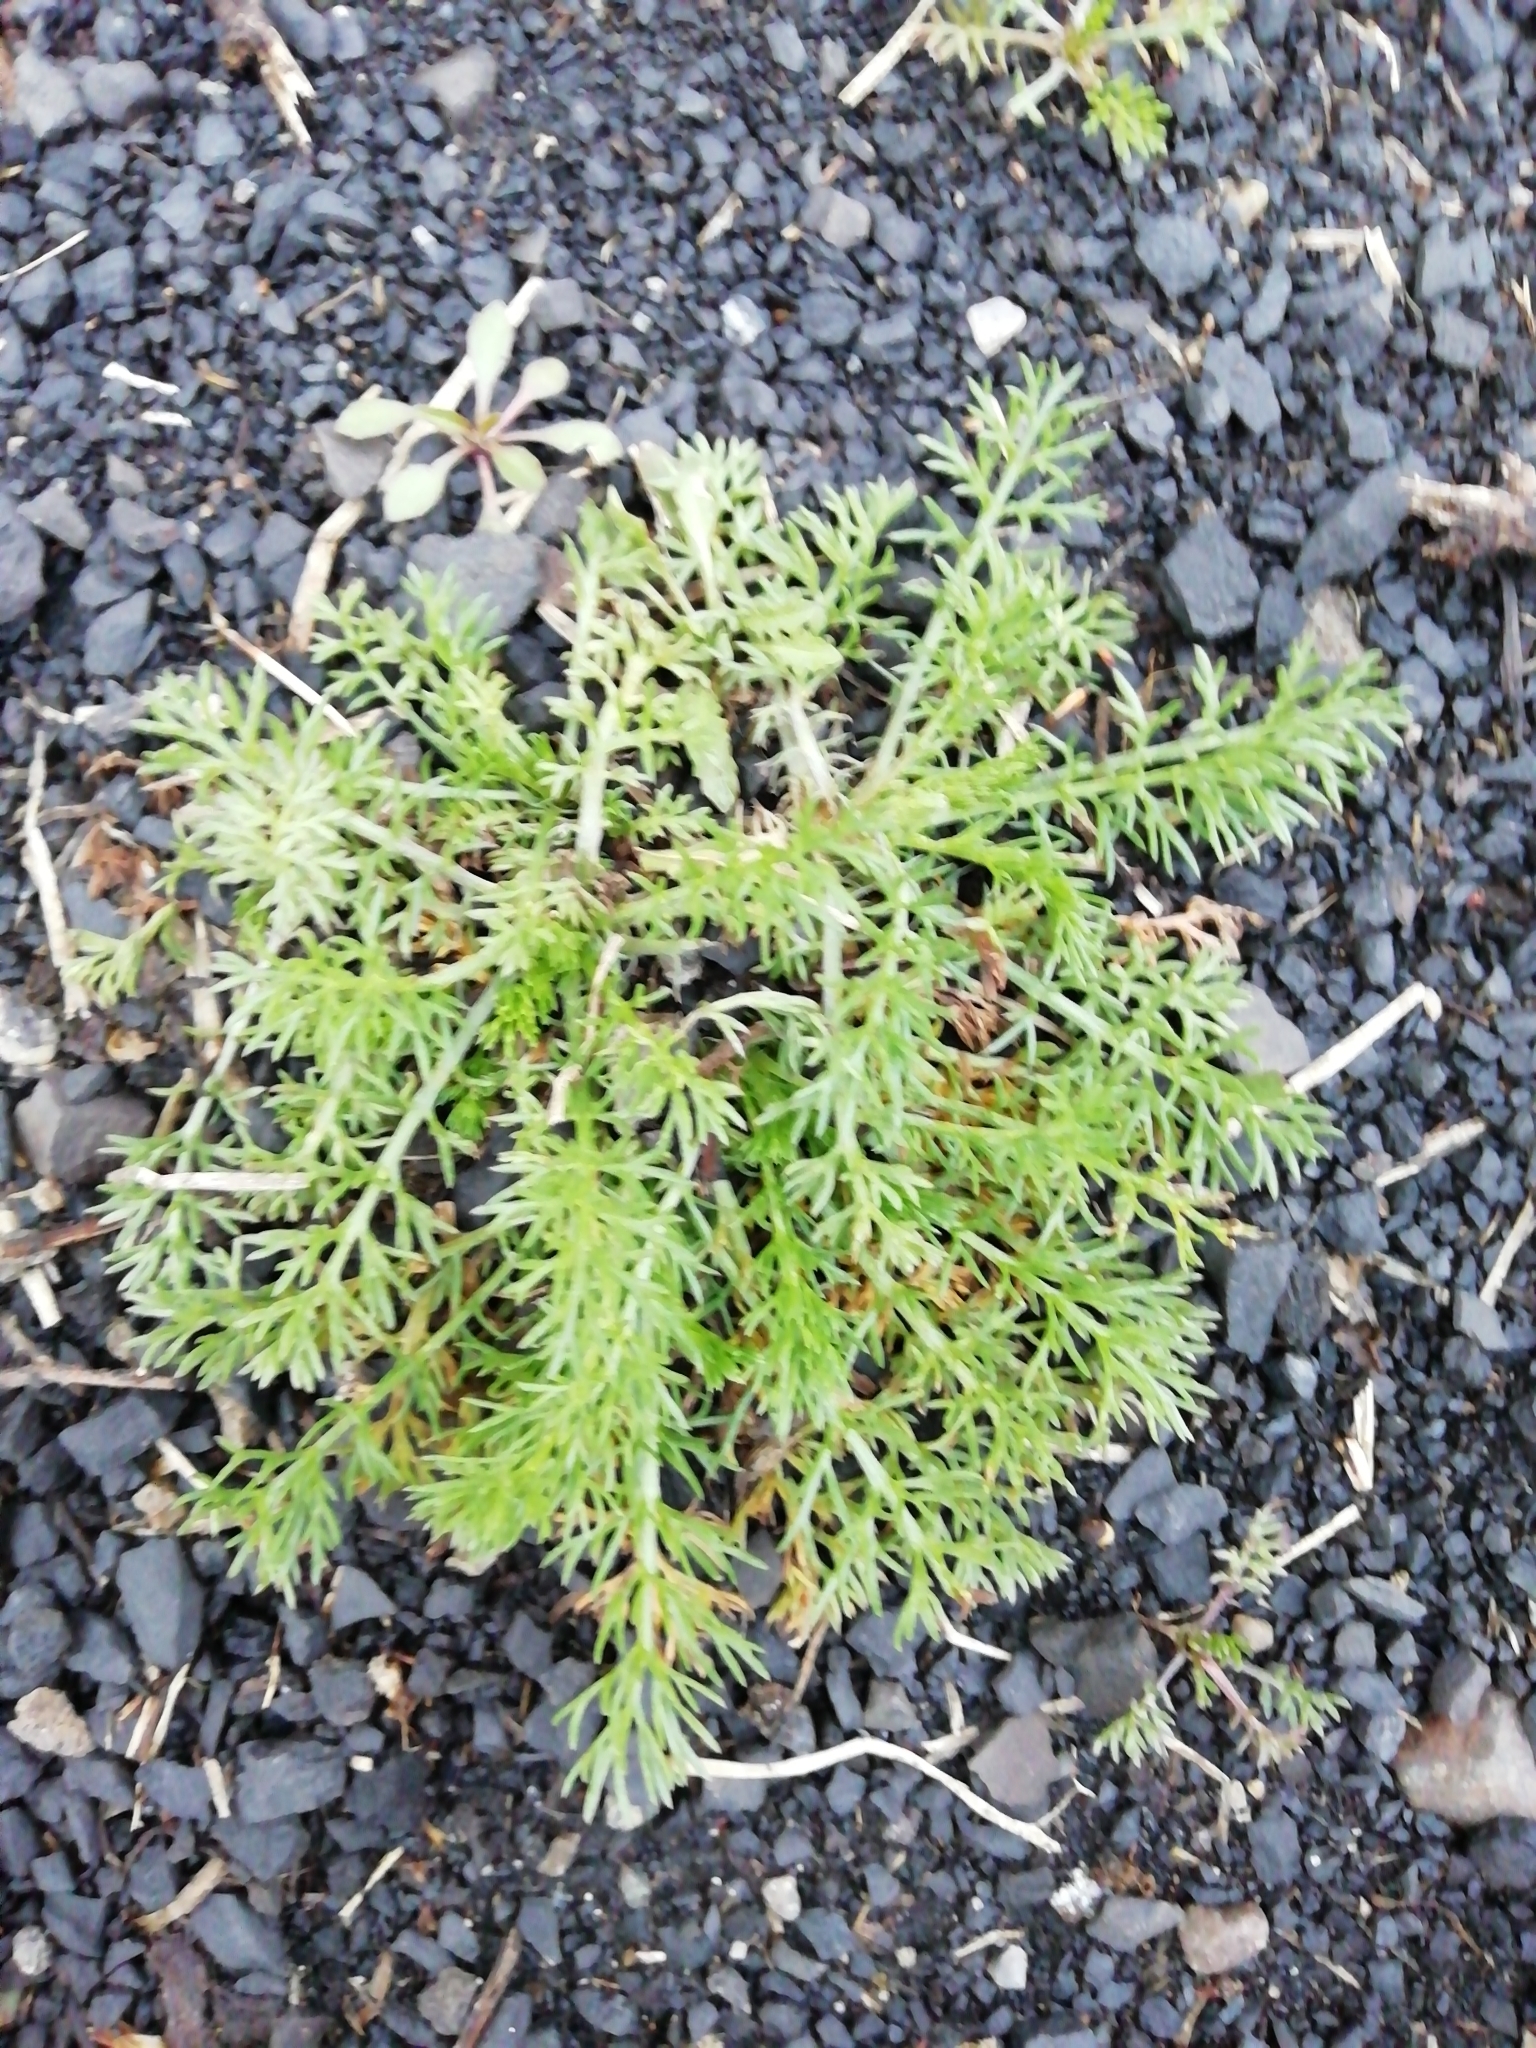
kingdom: Plantae
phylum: Tracheophyta
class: Magnoliopsida
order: Asterales
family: Asteraceae
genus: Tripleurospermum
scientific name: Tripleurospermum inodorum
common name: Scentless mayweed
